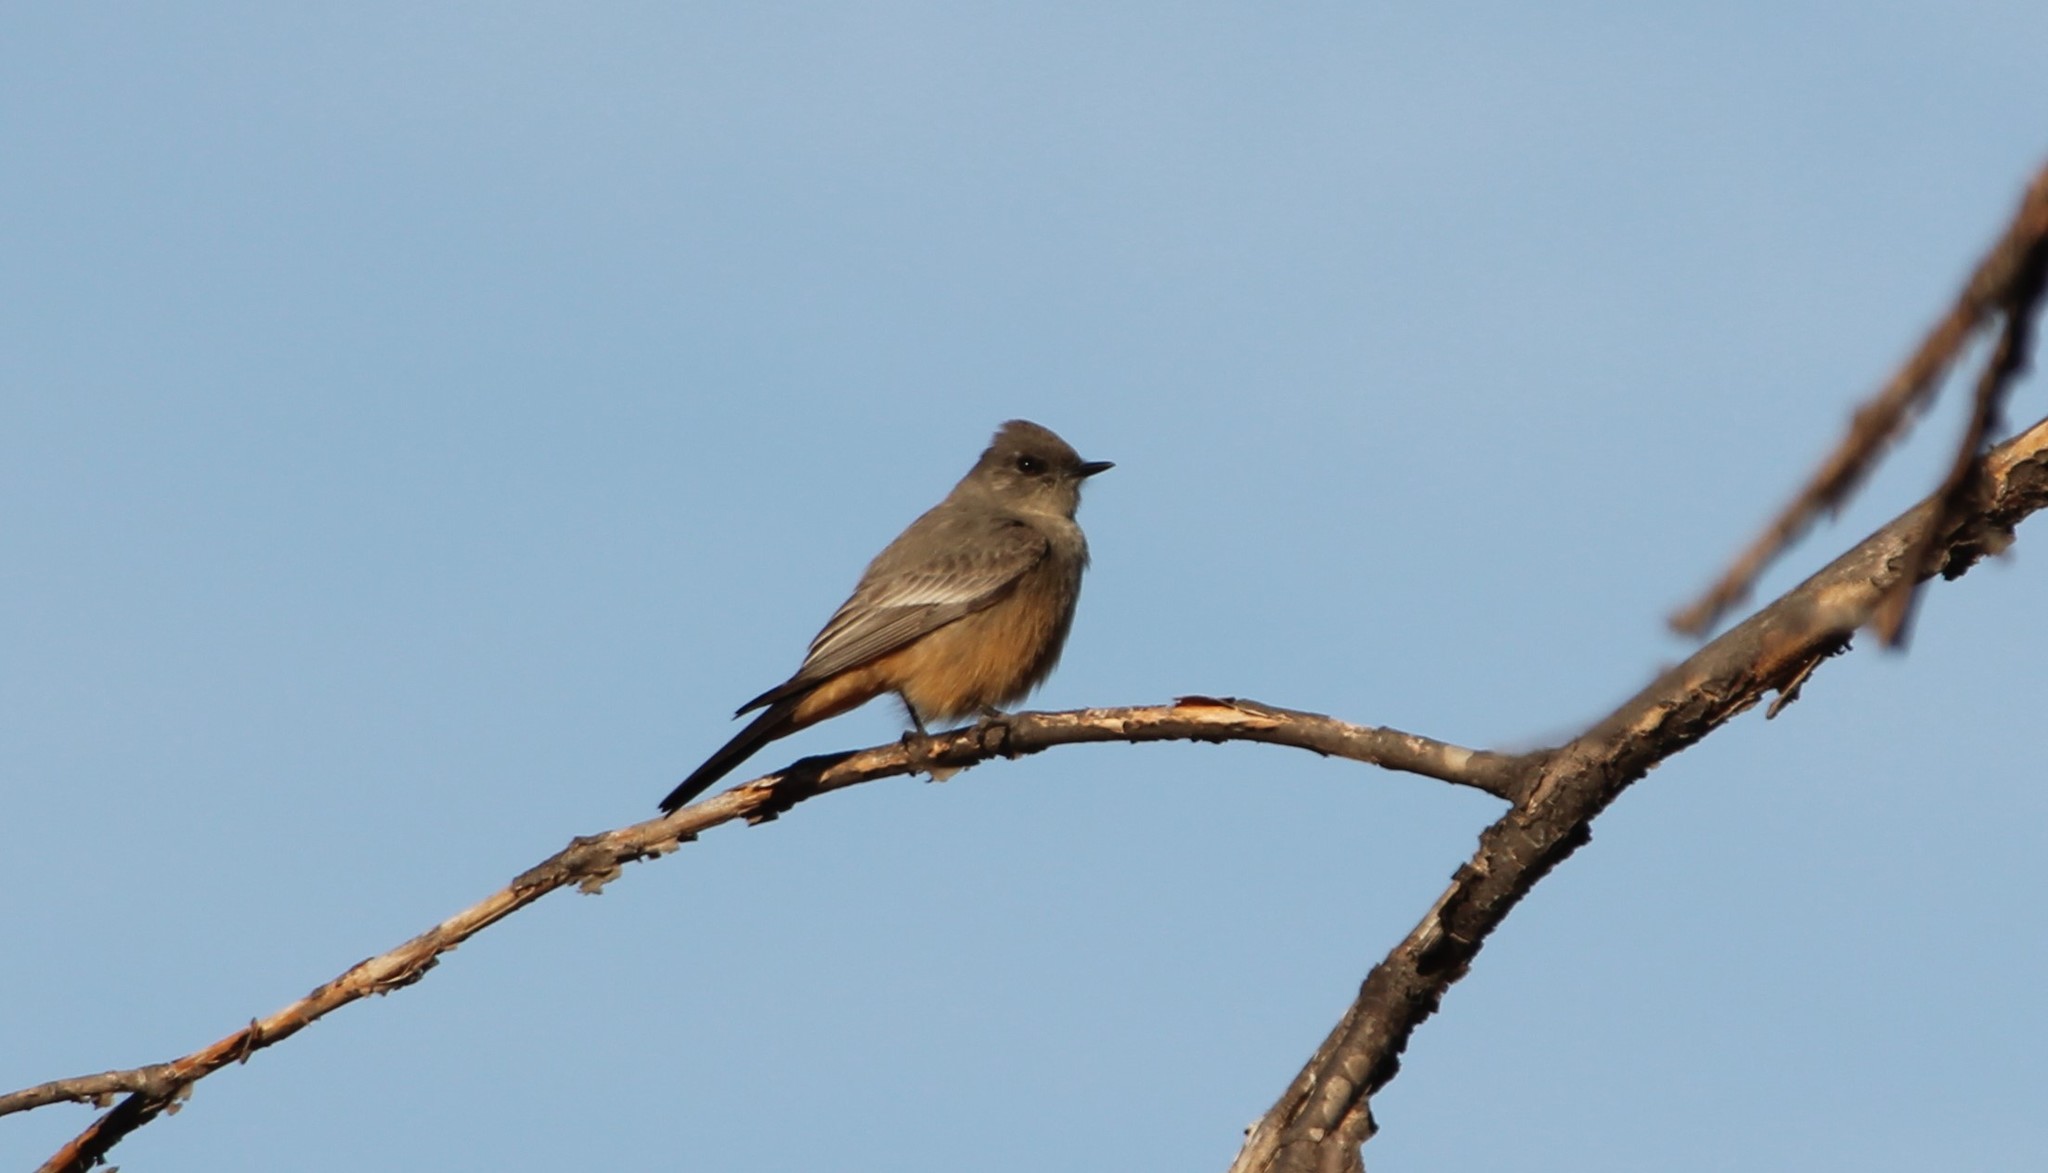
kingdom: Animalia
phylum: Chordata
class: Aves
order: Passeriformes
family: Tyrannidae
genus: Sayornis
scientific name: Sayornis saya
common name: Say's phoebe
